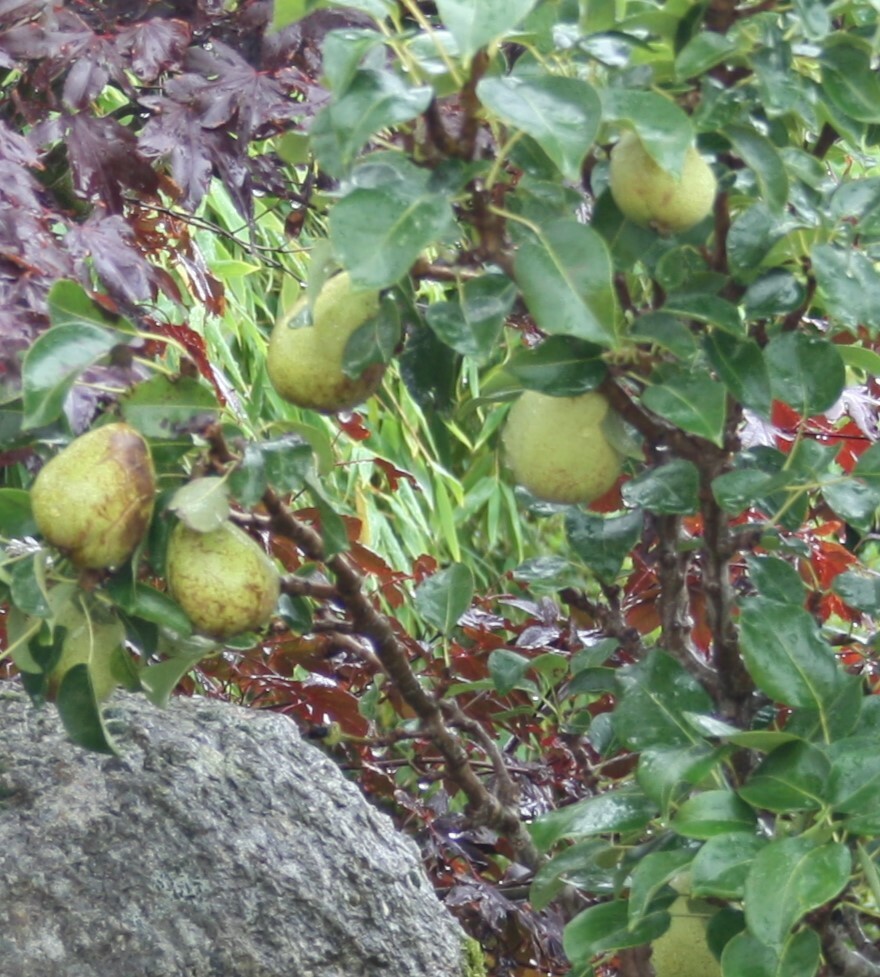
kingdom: Plantae
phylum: Tracheophyta
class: Magnoliopsida
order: Rosales
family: Rosaceae
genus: Pyrus
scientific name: Pyrus communis
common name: Pear
